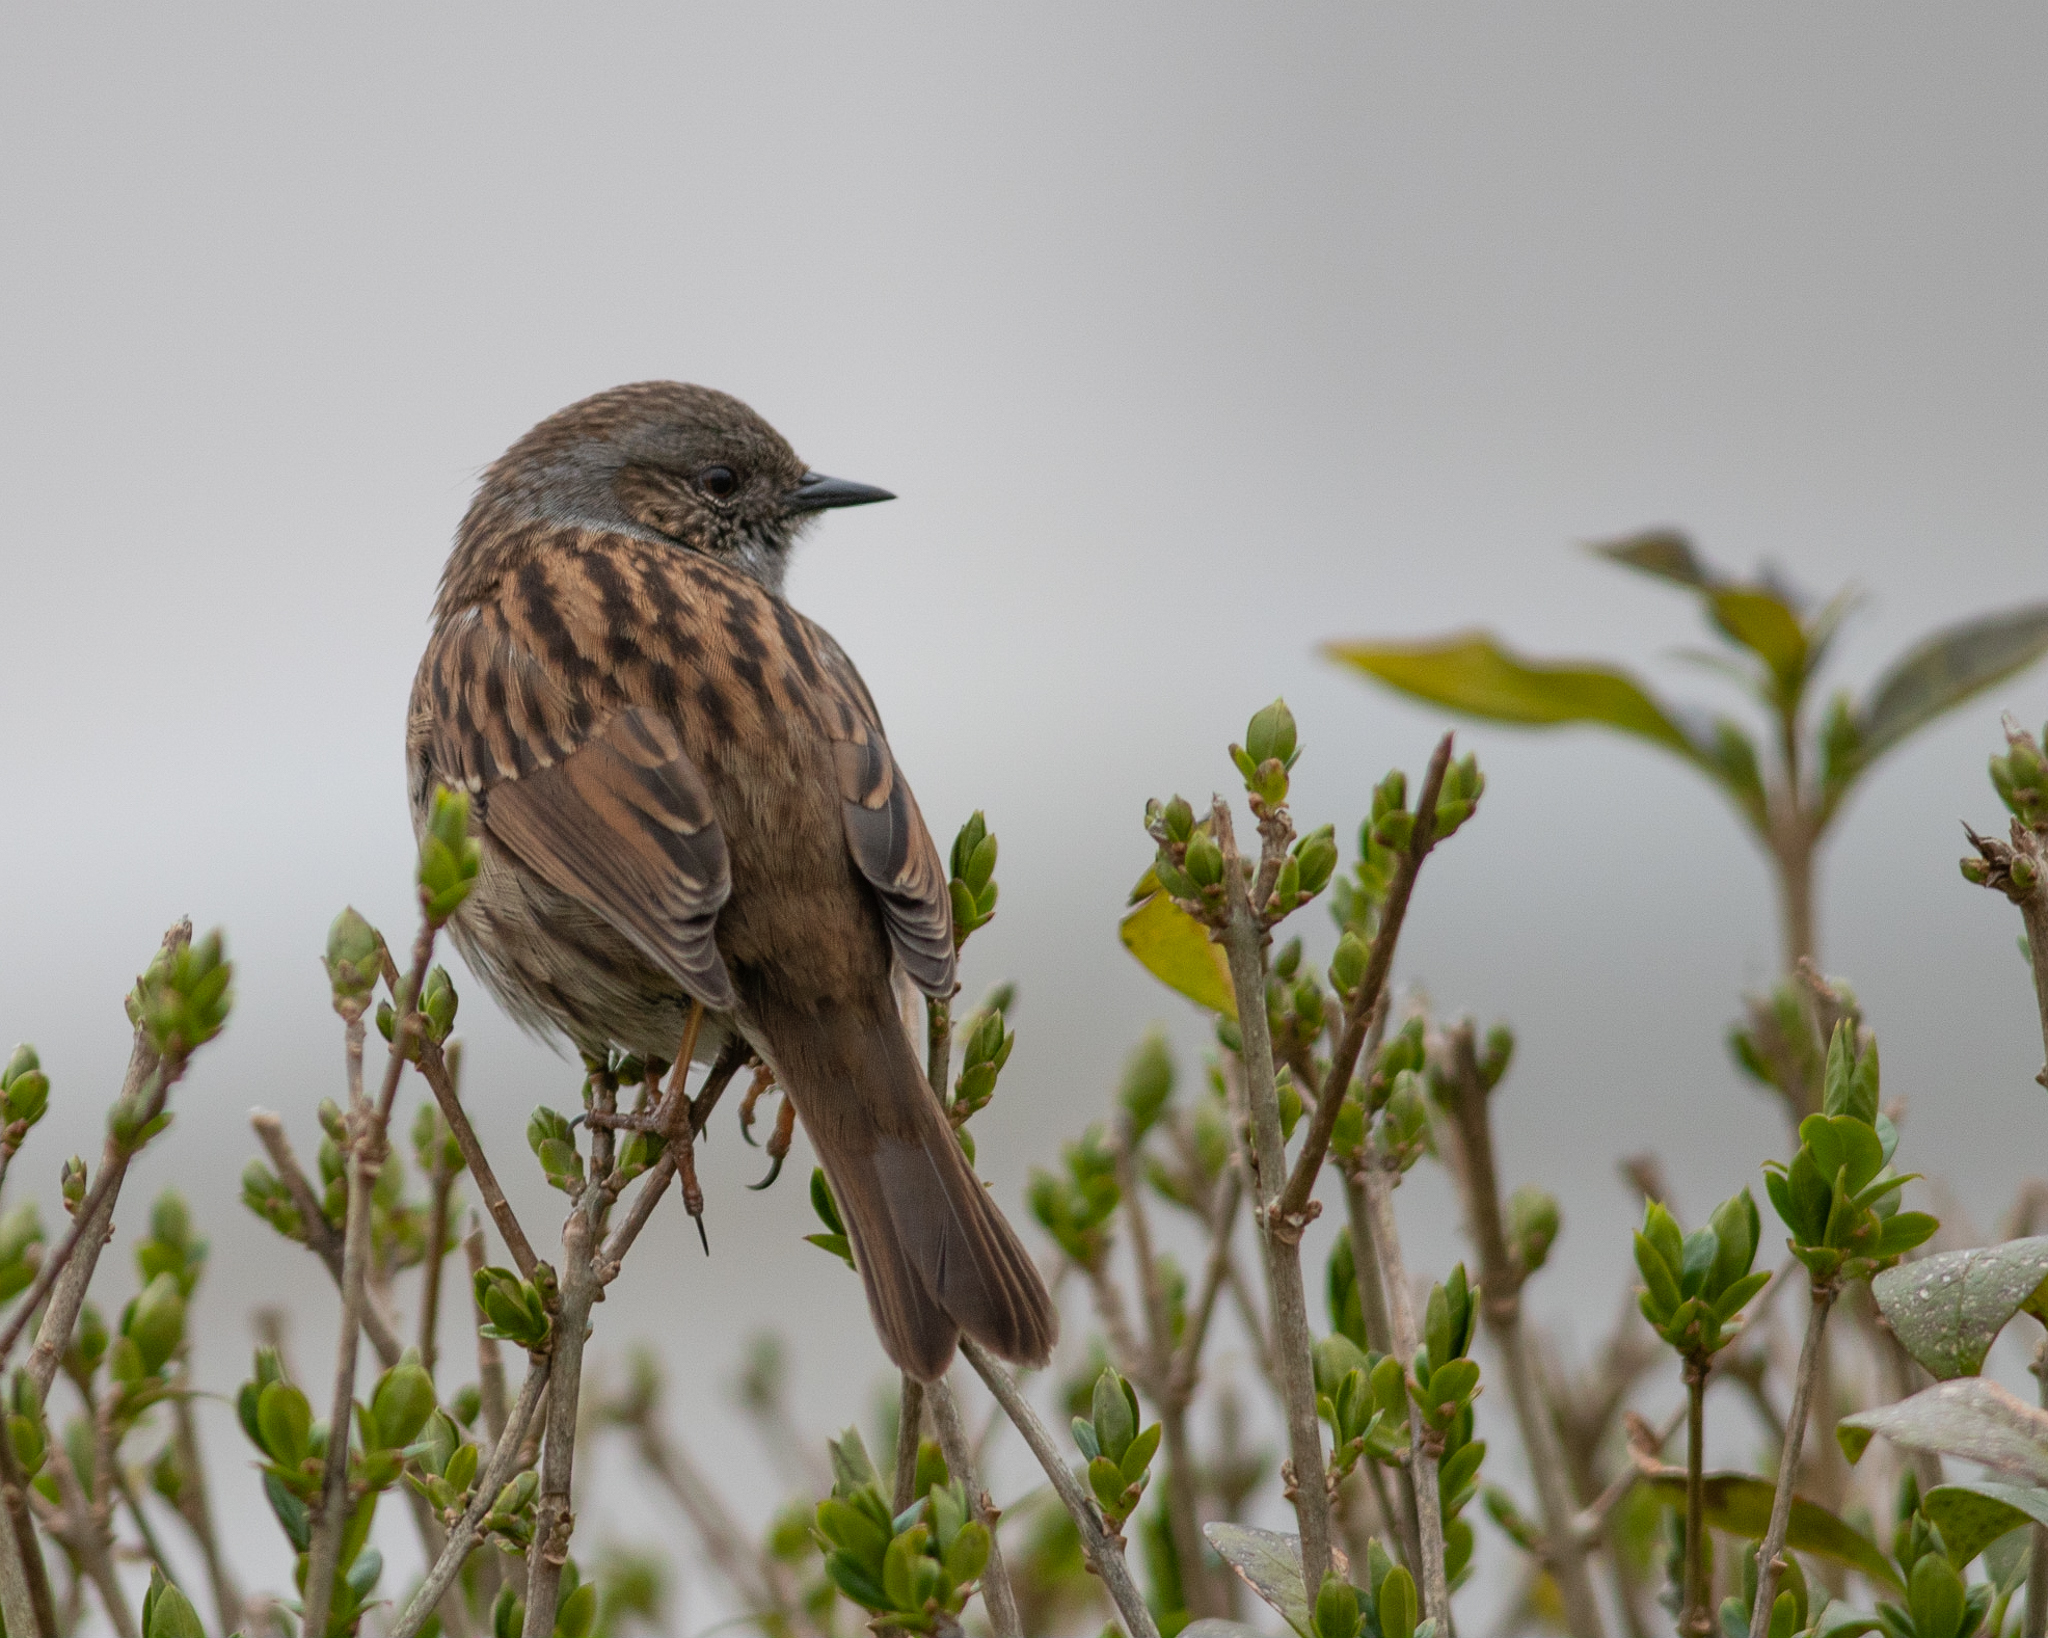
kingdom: Animalia
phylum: Chordata
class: Aves
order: Passeriformes
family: Prunellidae
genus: Prunella
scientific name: Prunella modularis
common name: Dunnock
